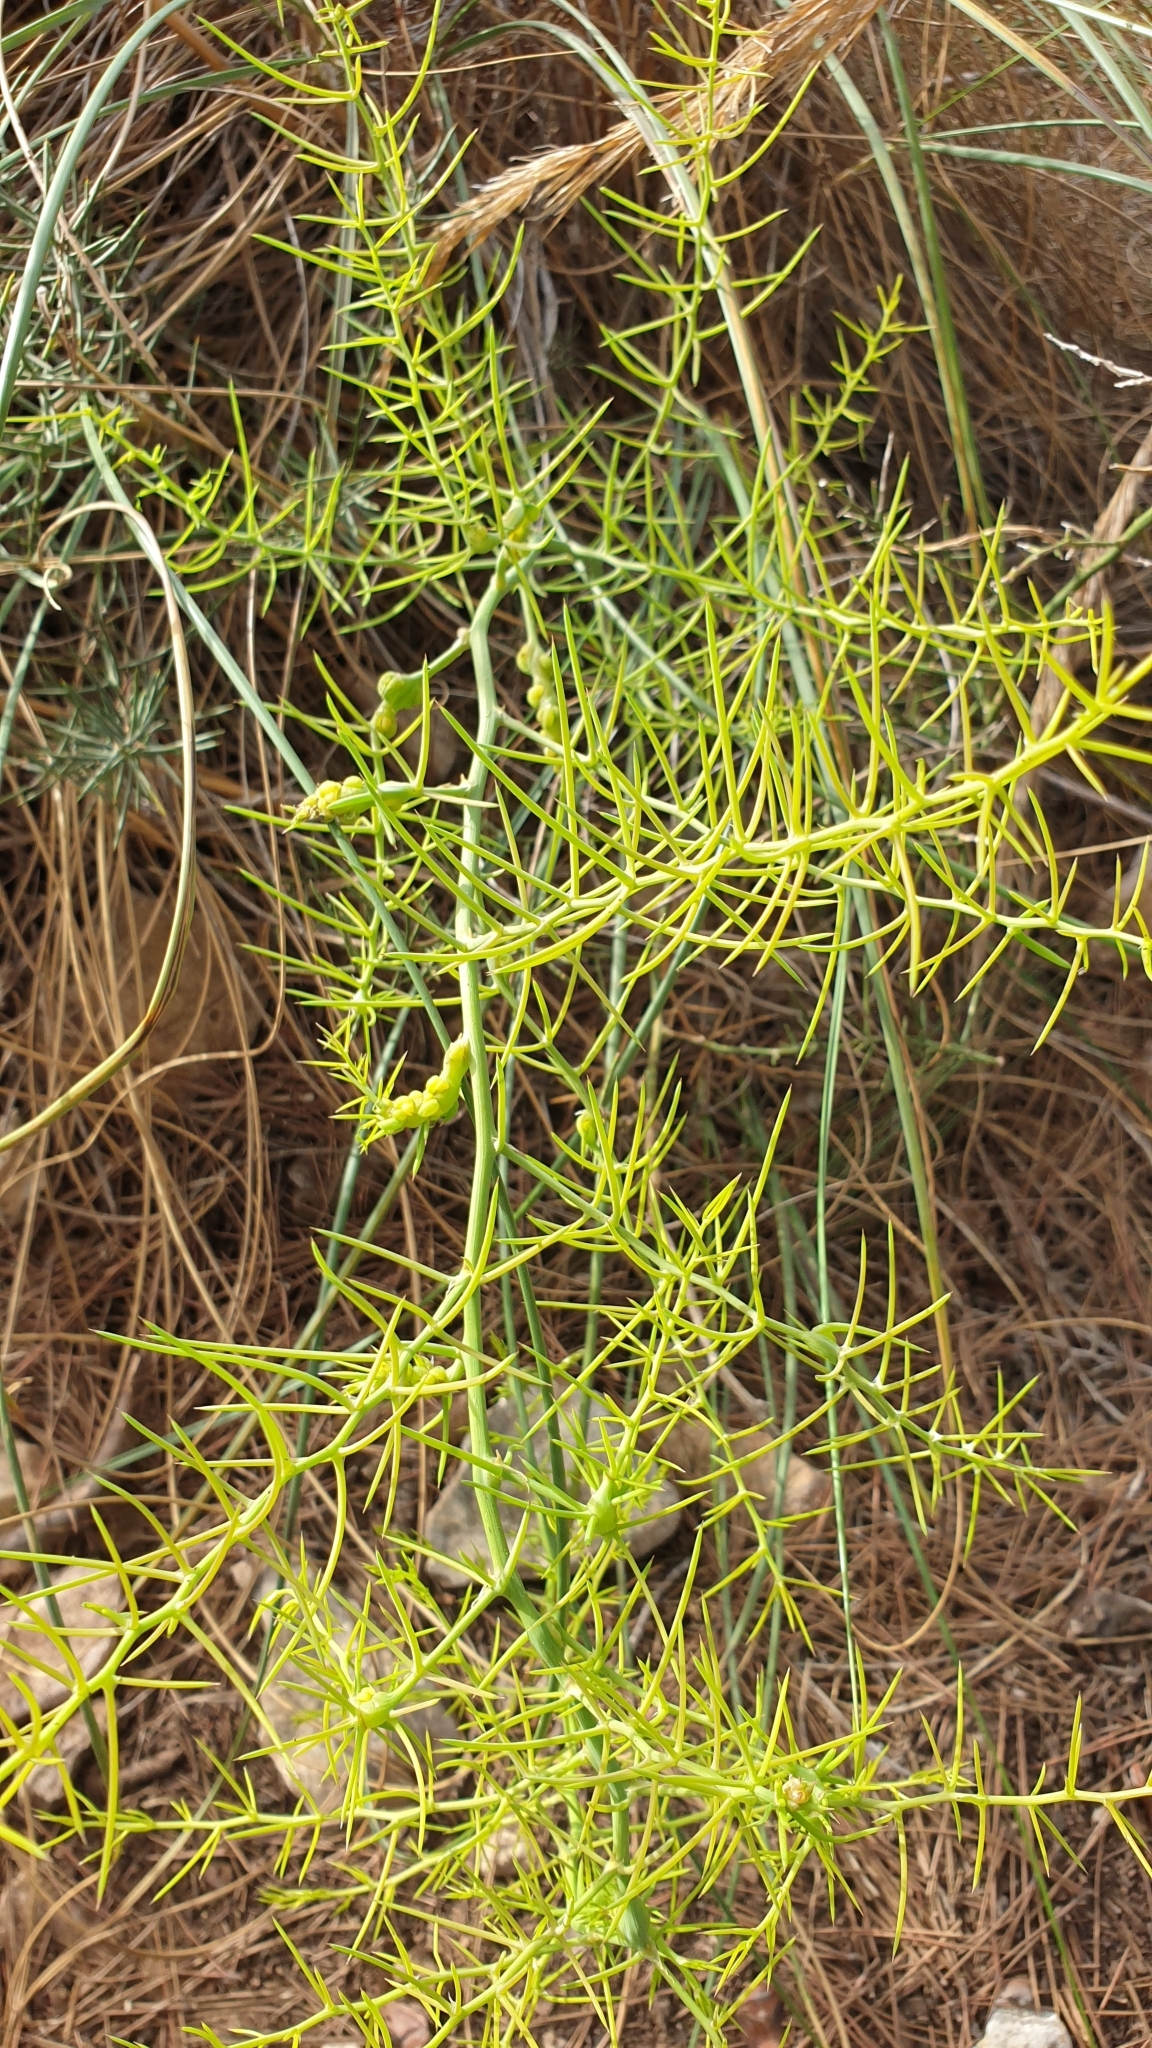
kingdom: Plantae
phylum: Tracheophyta
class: Liliopsida
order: Asparagales
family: Asparagaceae
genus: Asparagus
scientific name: Asparagus horridus
